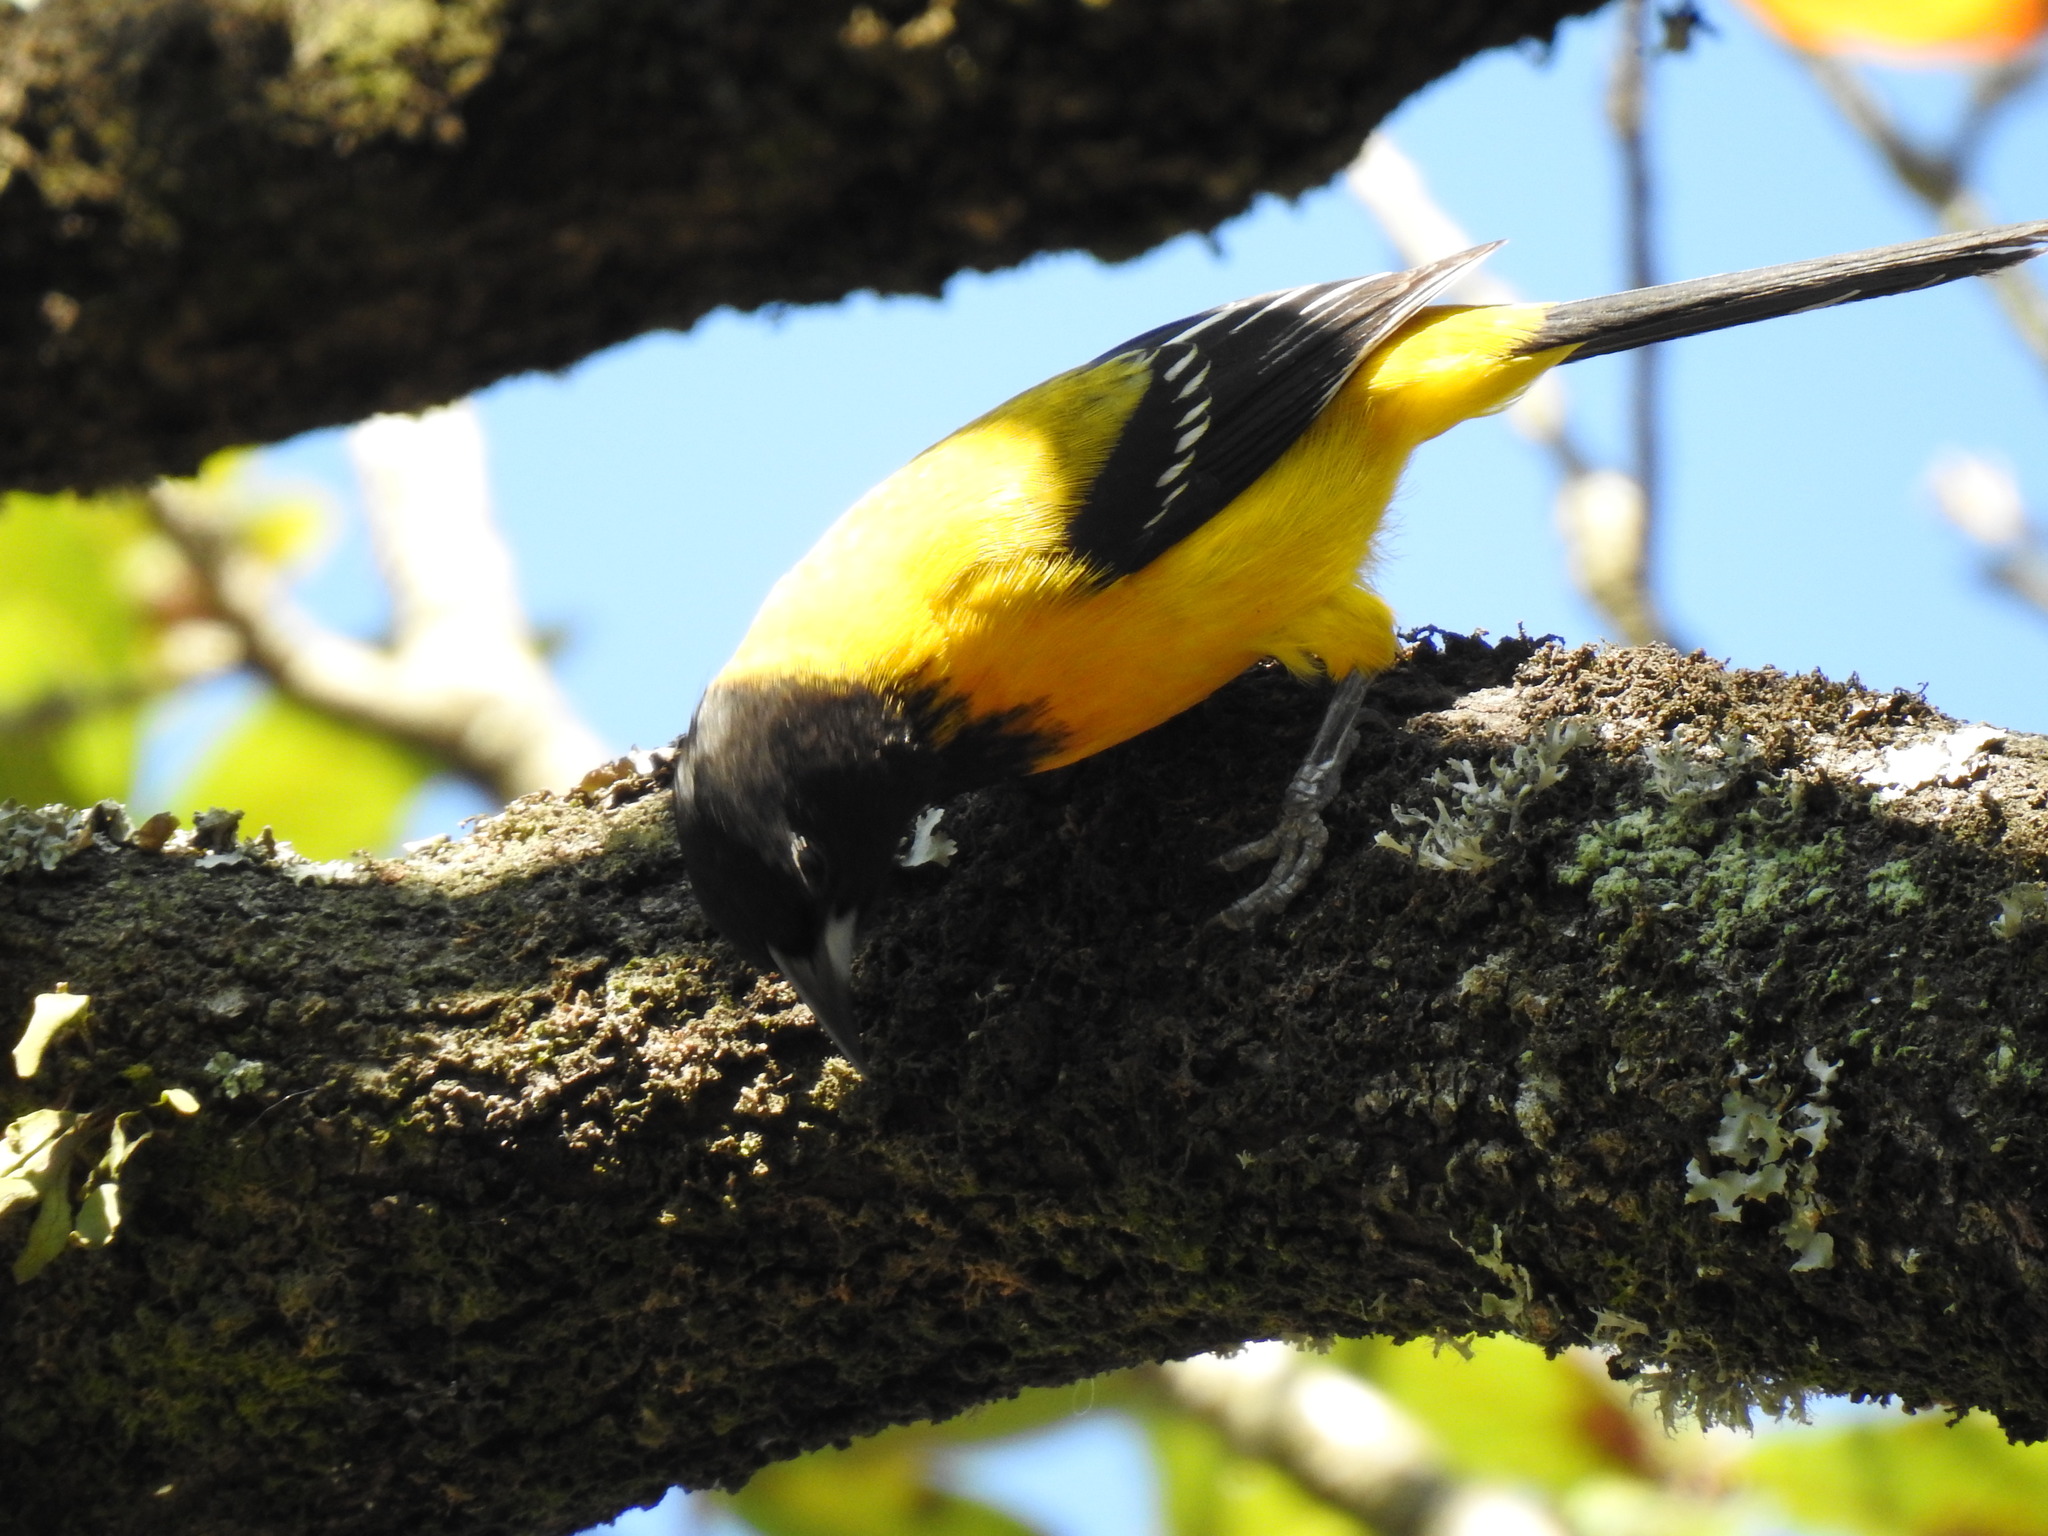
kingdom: Animalia
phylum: Chordata
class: Aves
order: Passeriformes
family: Icteridae
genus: Icterus
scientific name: Icterus graduacauda
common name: Audubon's oriole
